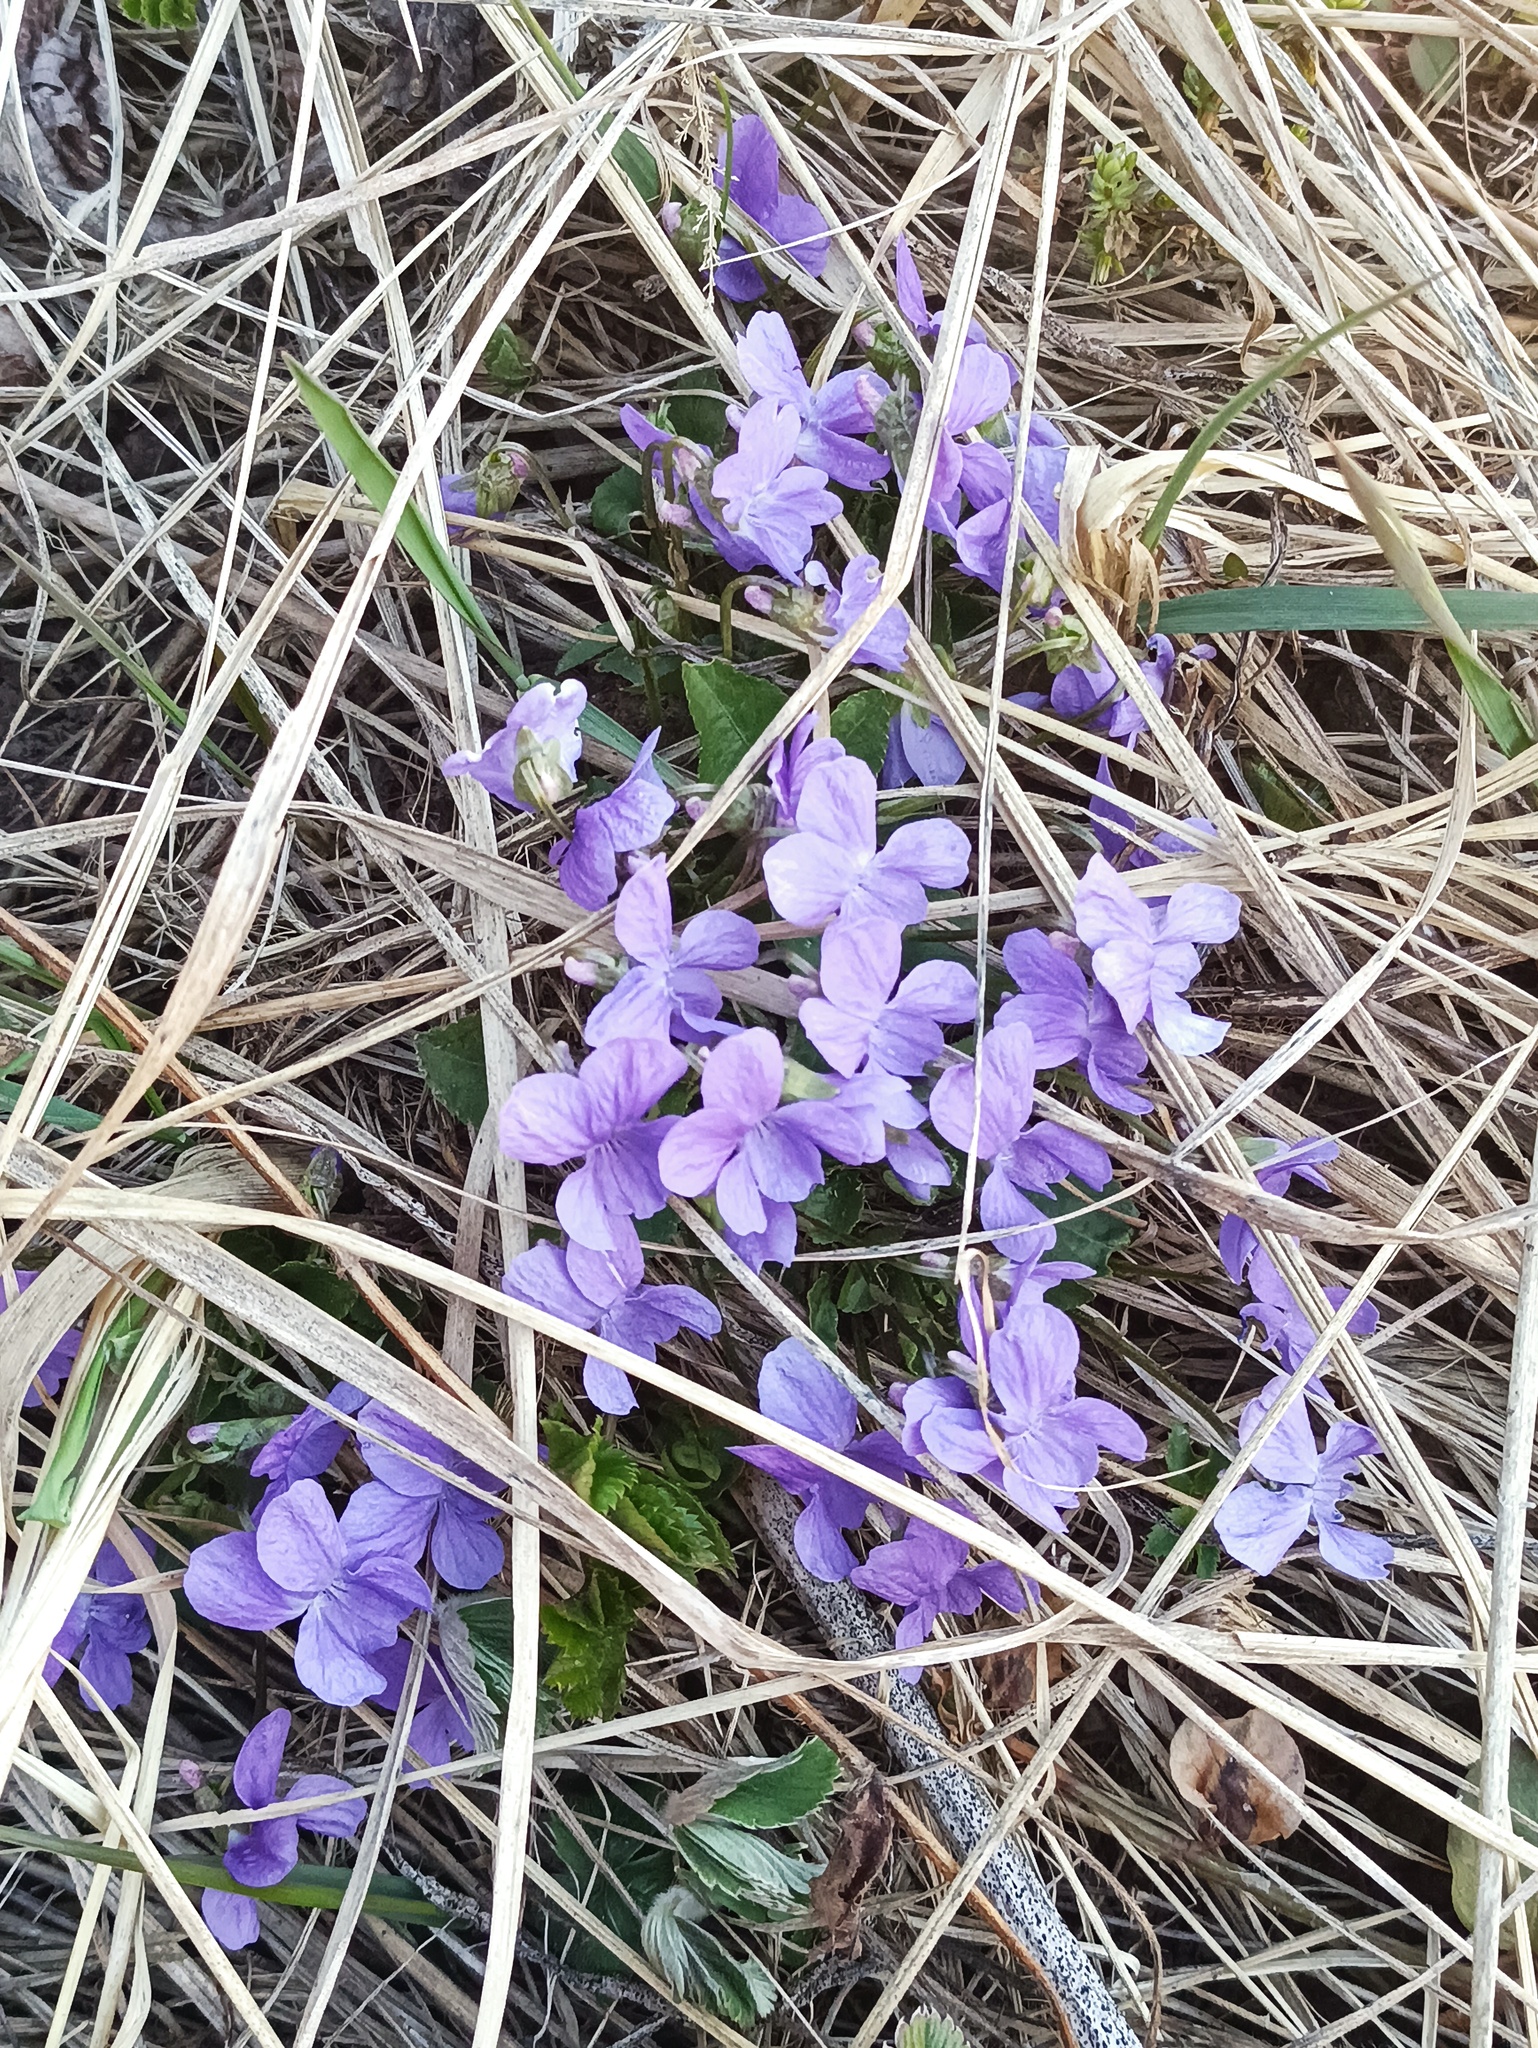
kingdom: Plantae
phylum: Tracheophyta
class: Magnoliopsida
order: Malpighiales
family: Violaceae
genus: Viola
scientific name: Viola hirta
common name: Hairy violet
